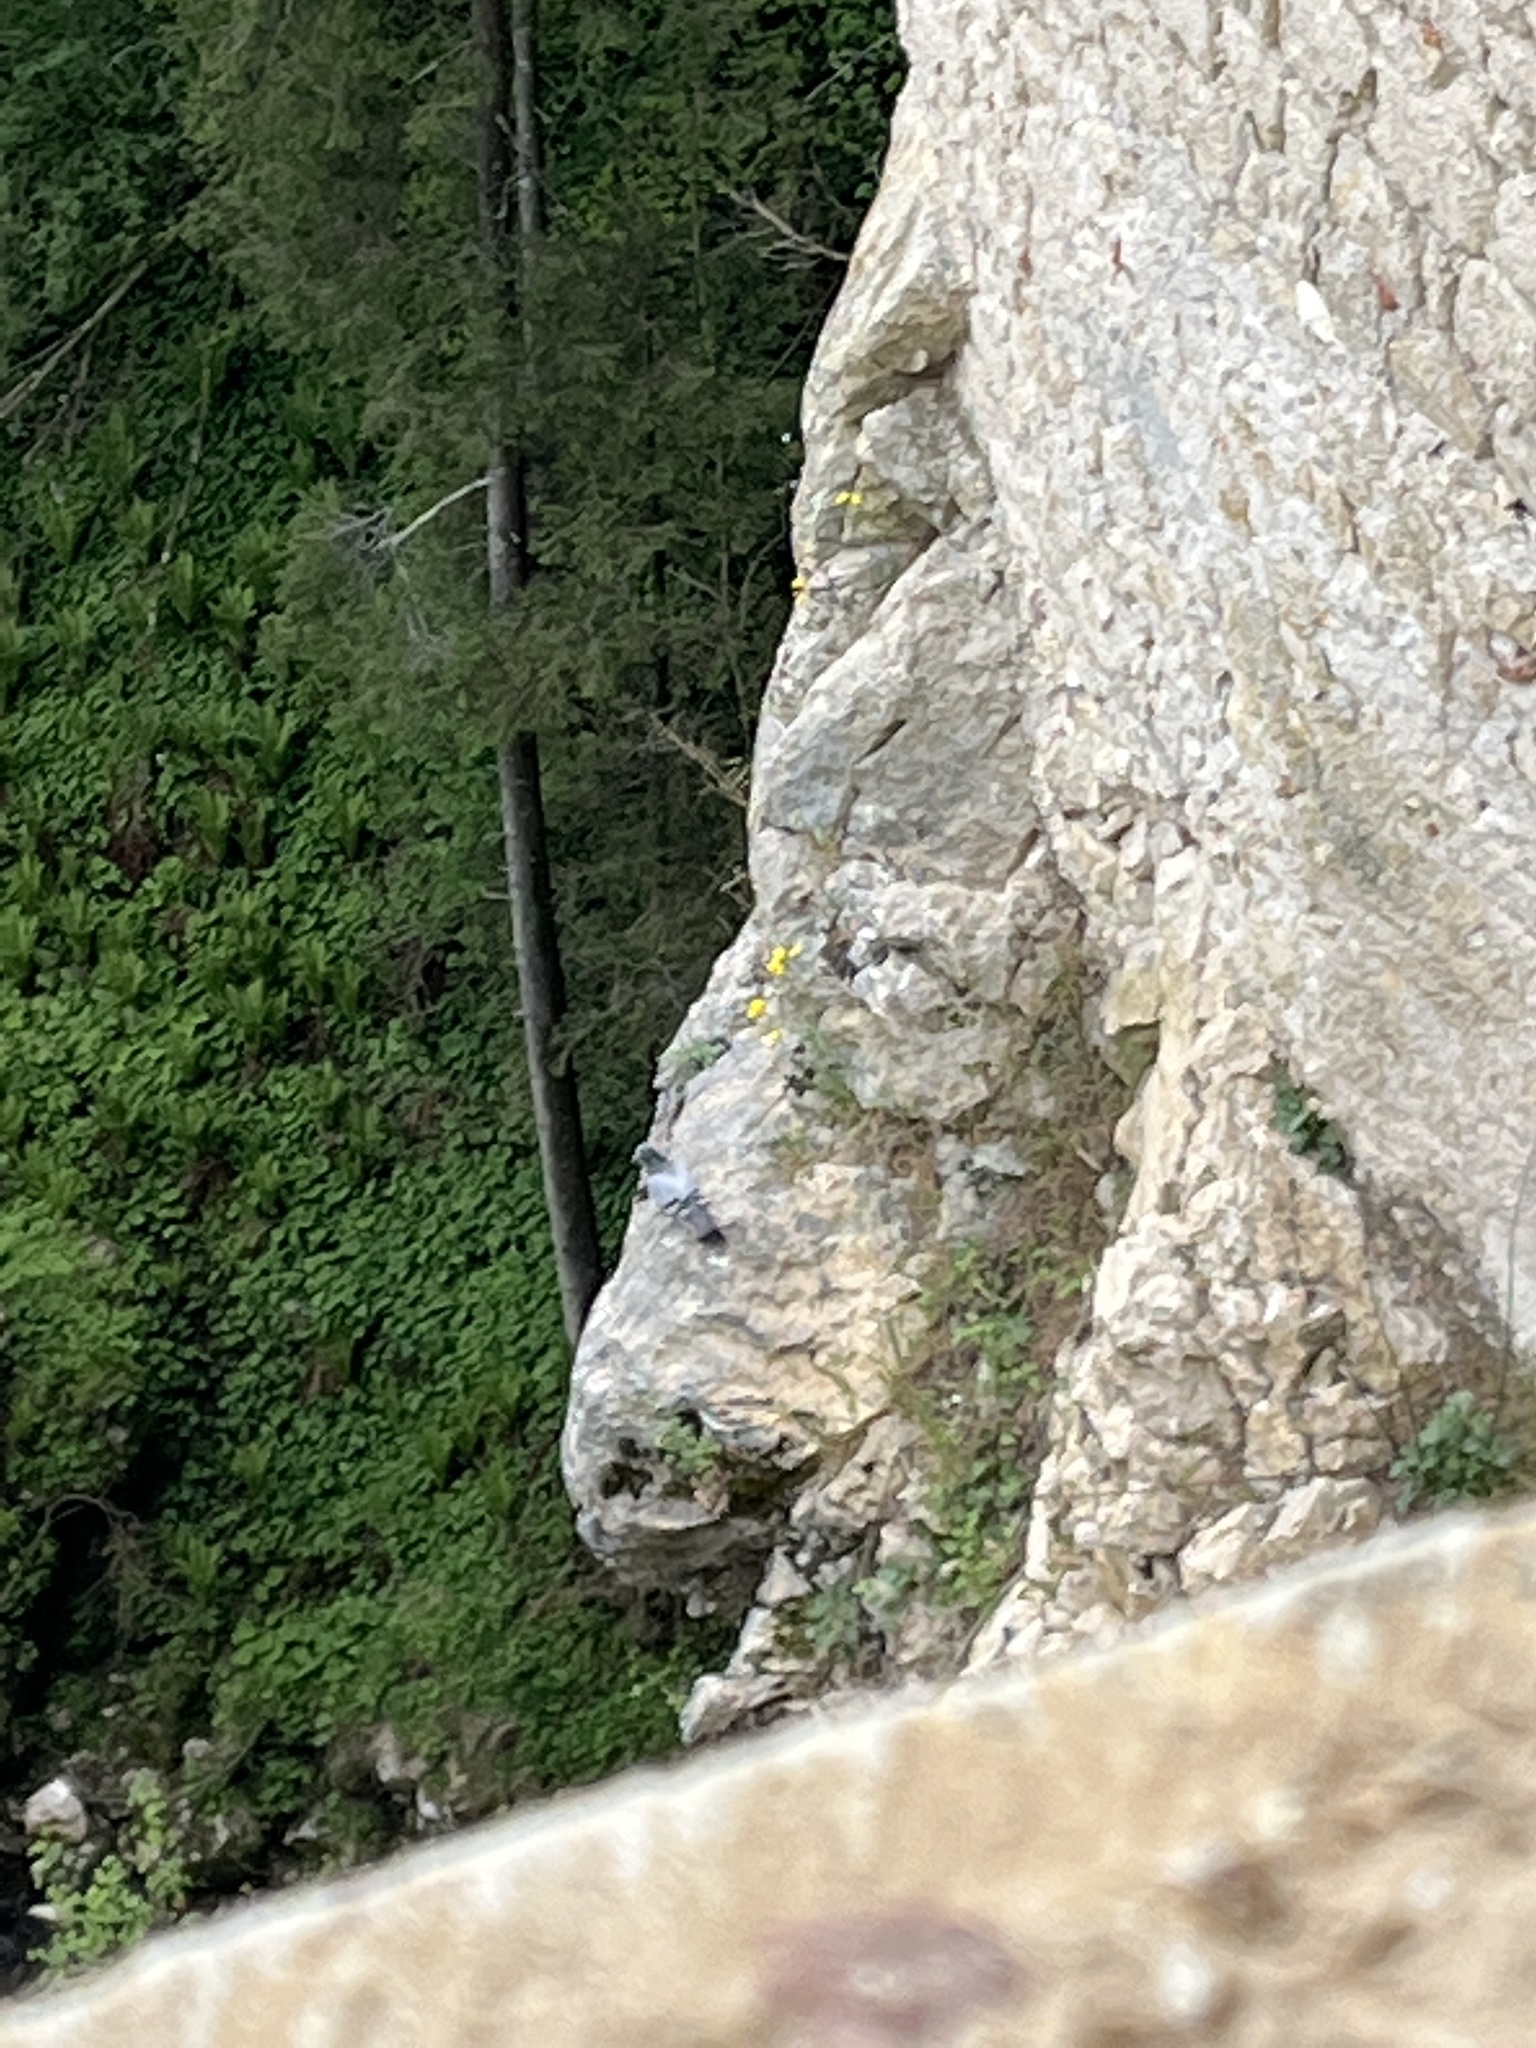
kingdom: Animalia
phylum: Chordata
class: Aves
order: Columbiformes
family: Columbidae
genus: Columba
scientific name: Columba livia
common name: Rock pigeon
